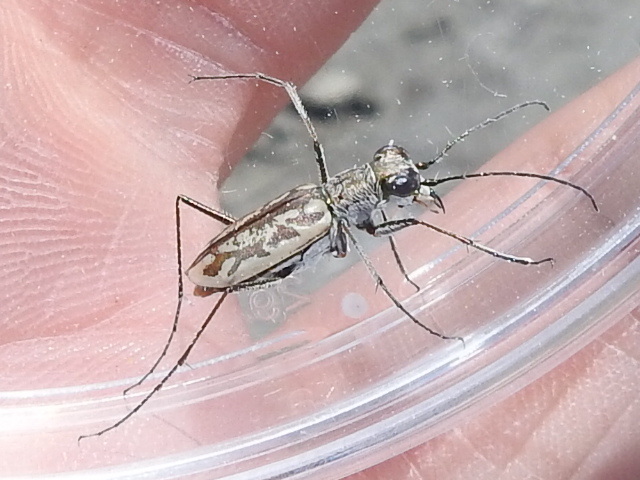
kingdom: Animalia
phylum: Arthropoda
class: Insecta
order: Coleoptera
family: Carabidae
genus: Ellipsoptera
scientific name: Ellipsoptera hamata
